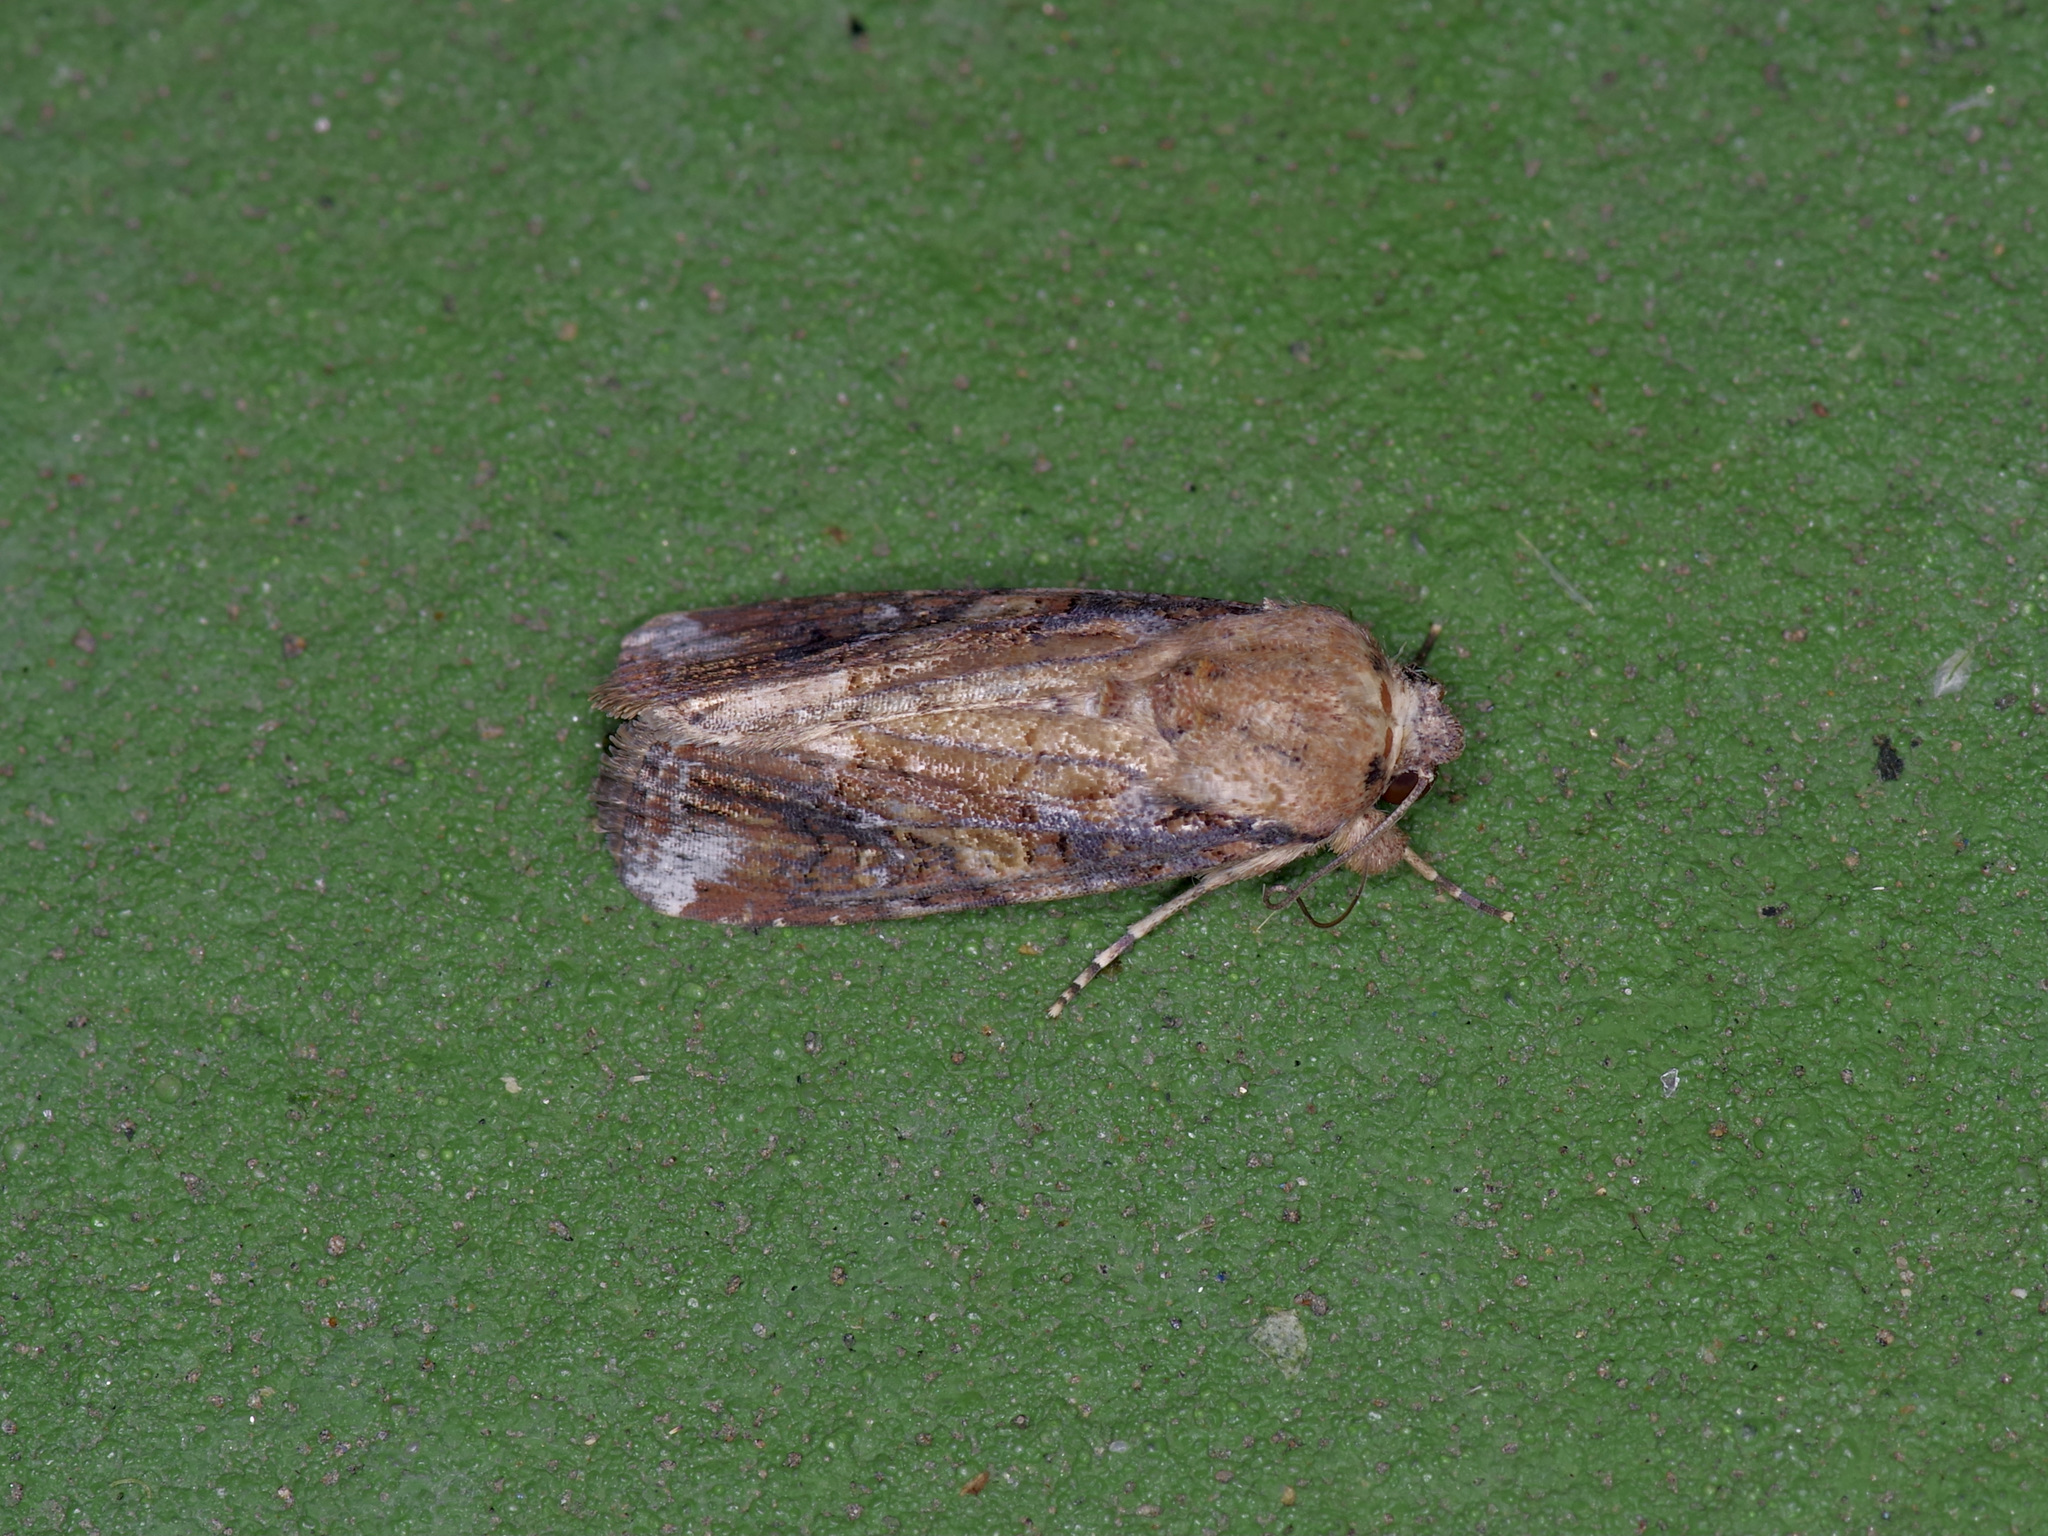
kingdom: Animalia
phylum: Arthropoda
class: Insecta
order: Lepidoptera
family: Noctuidae
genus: Spodoptera
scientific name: Spodoptera frugiperda
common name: Fall armyworm
